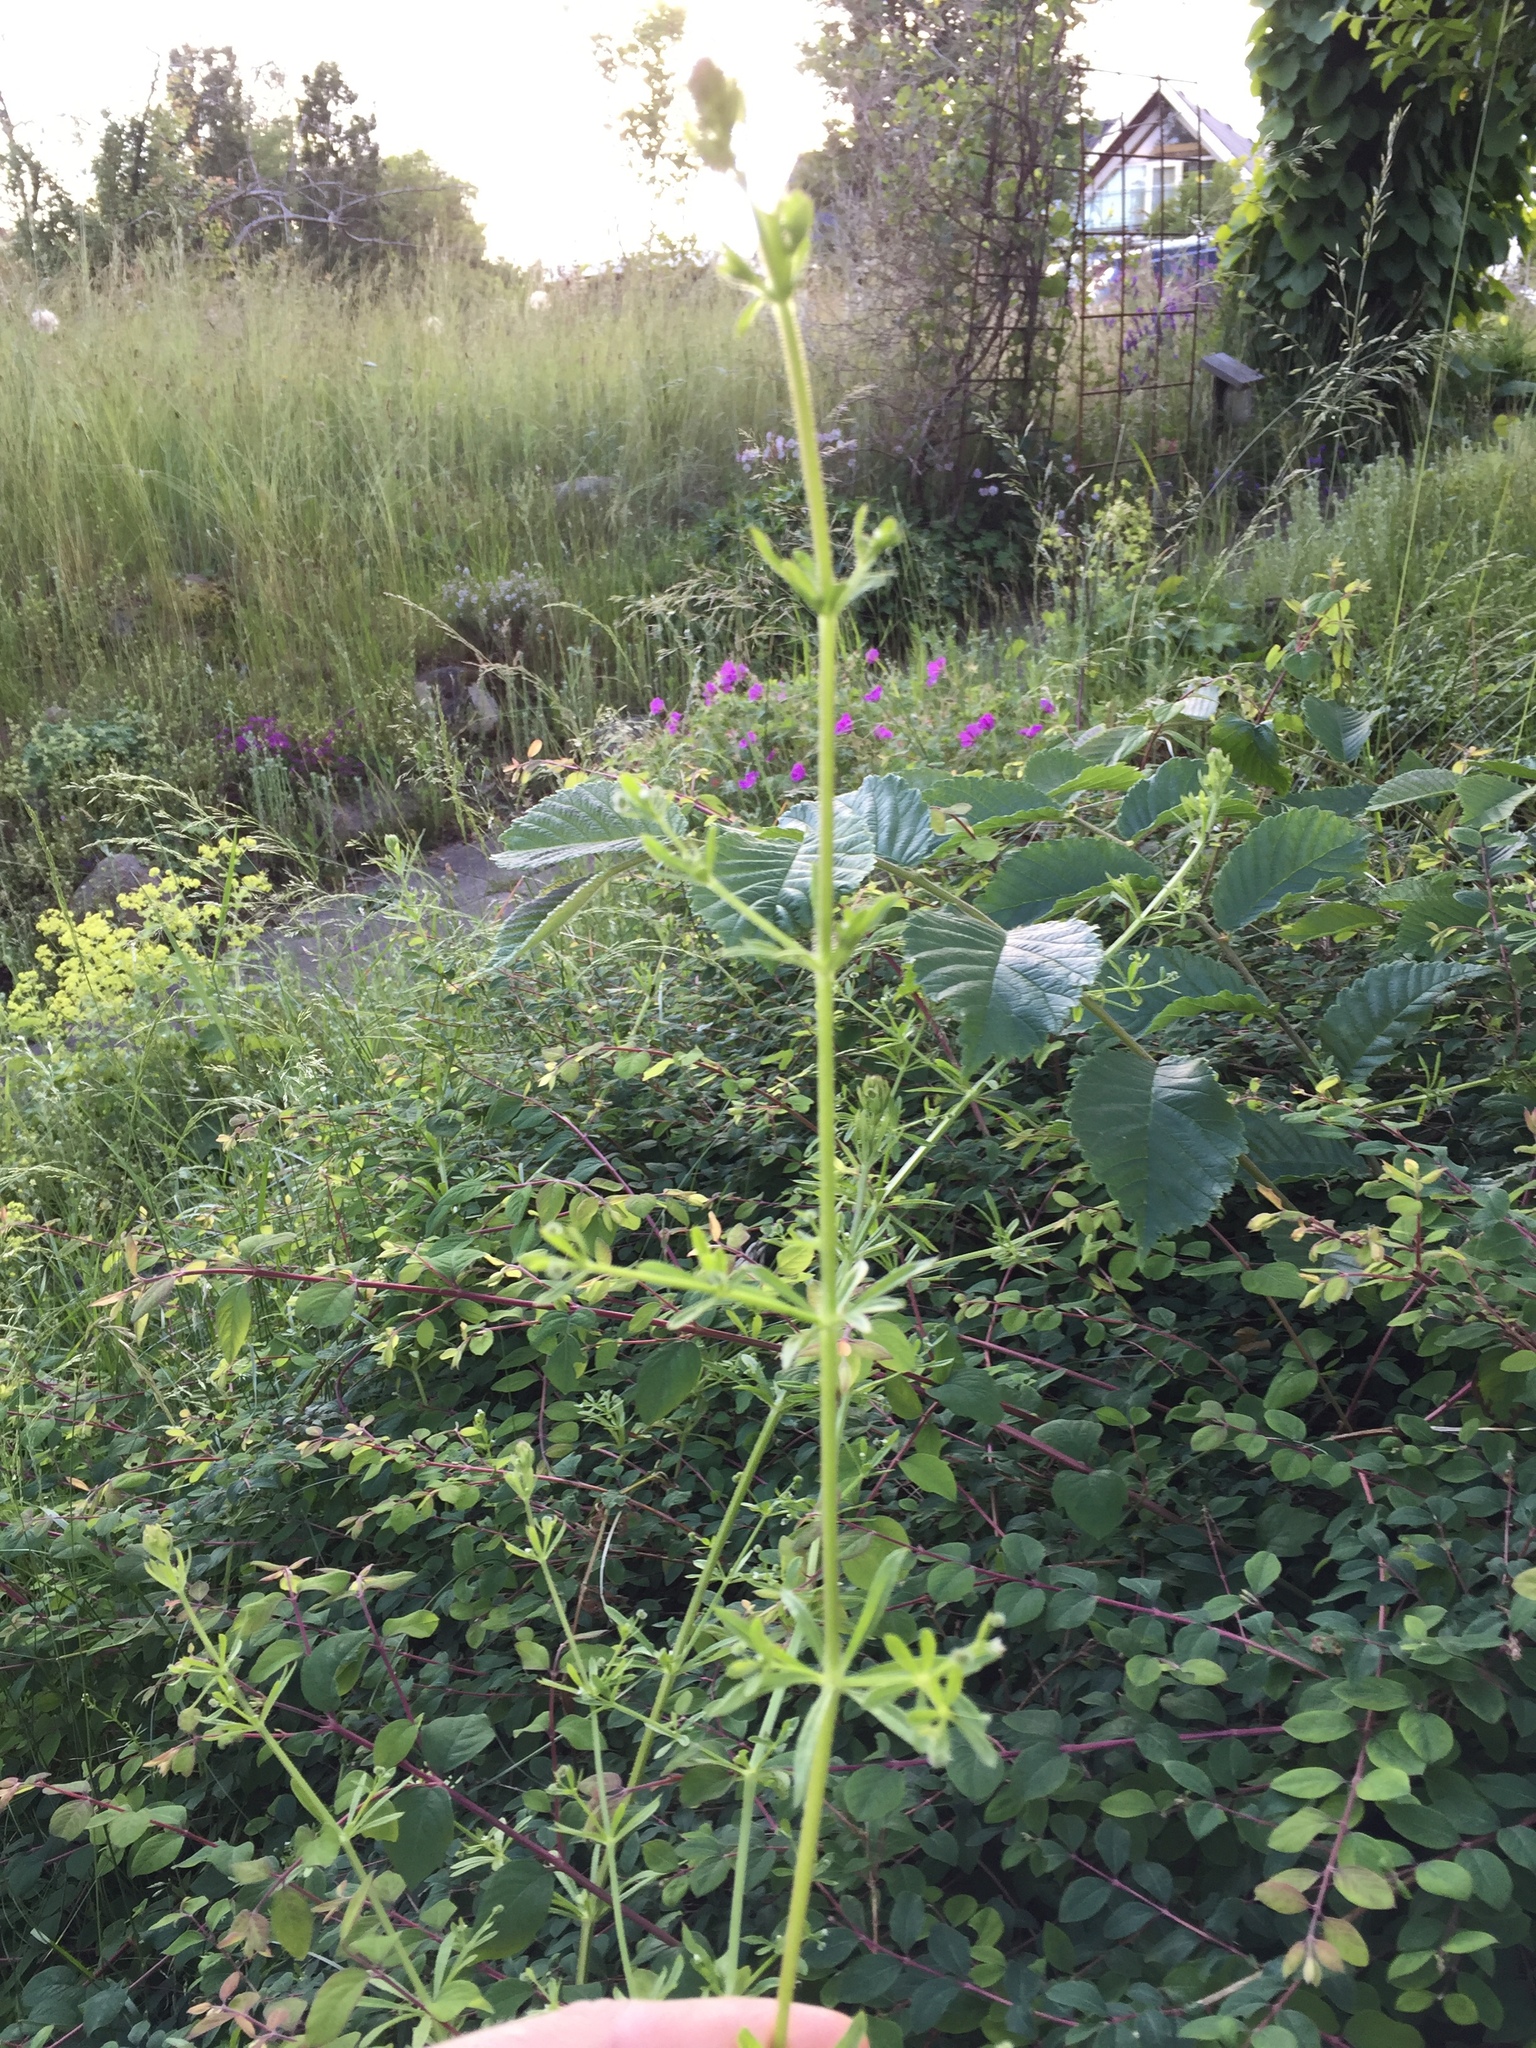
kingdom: Plantae
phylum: Tracheophyta
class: Magnoliopsida
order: Gentianales
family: Rubiaceae
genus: Galium
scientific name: Galium aparine
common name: Cleavers
